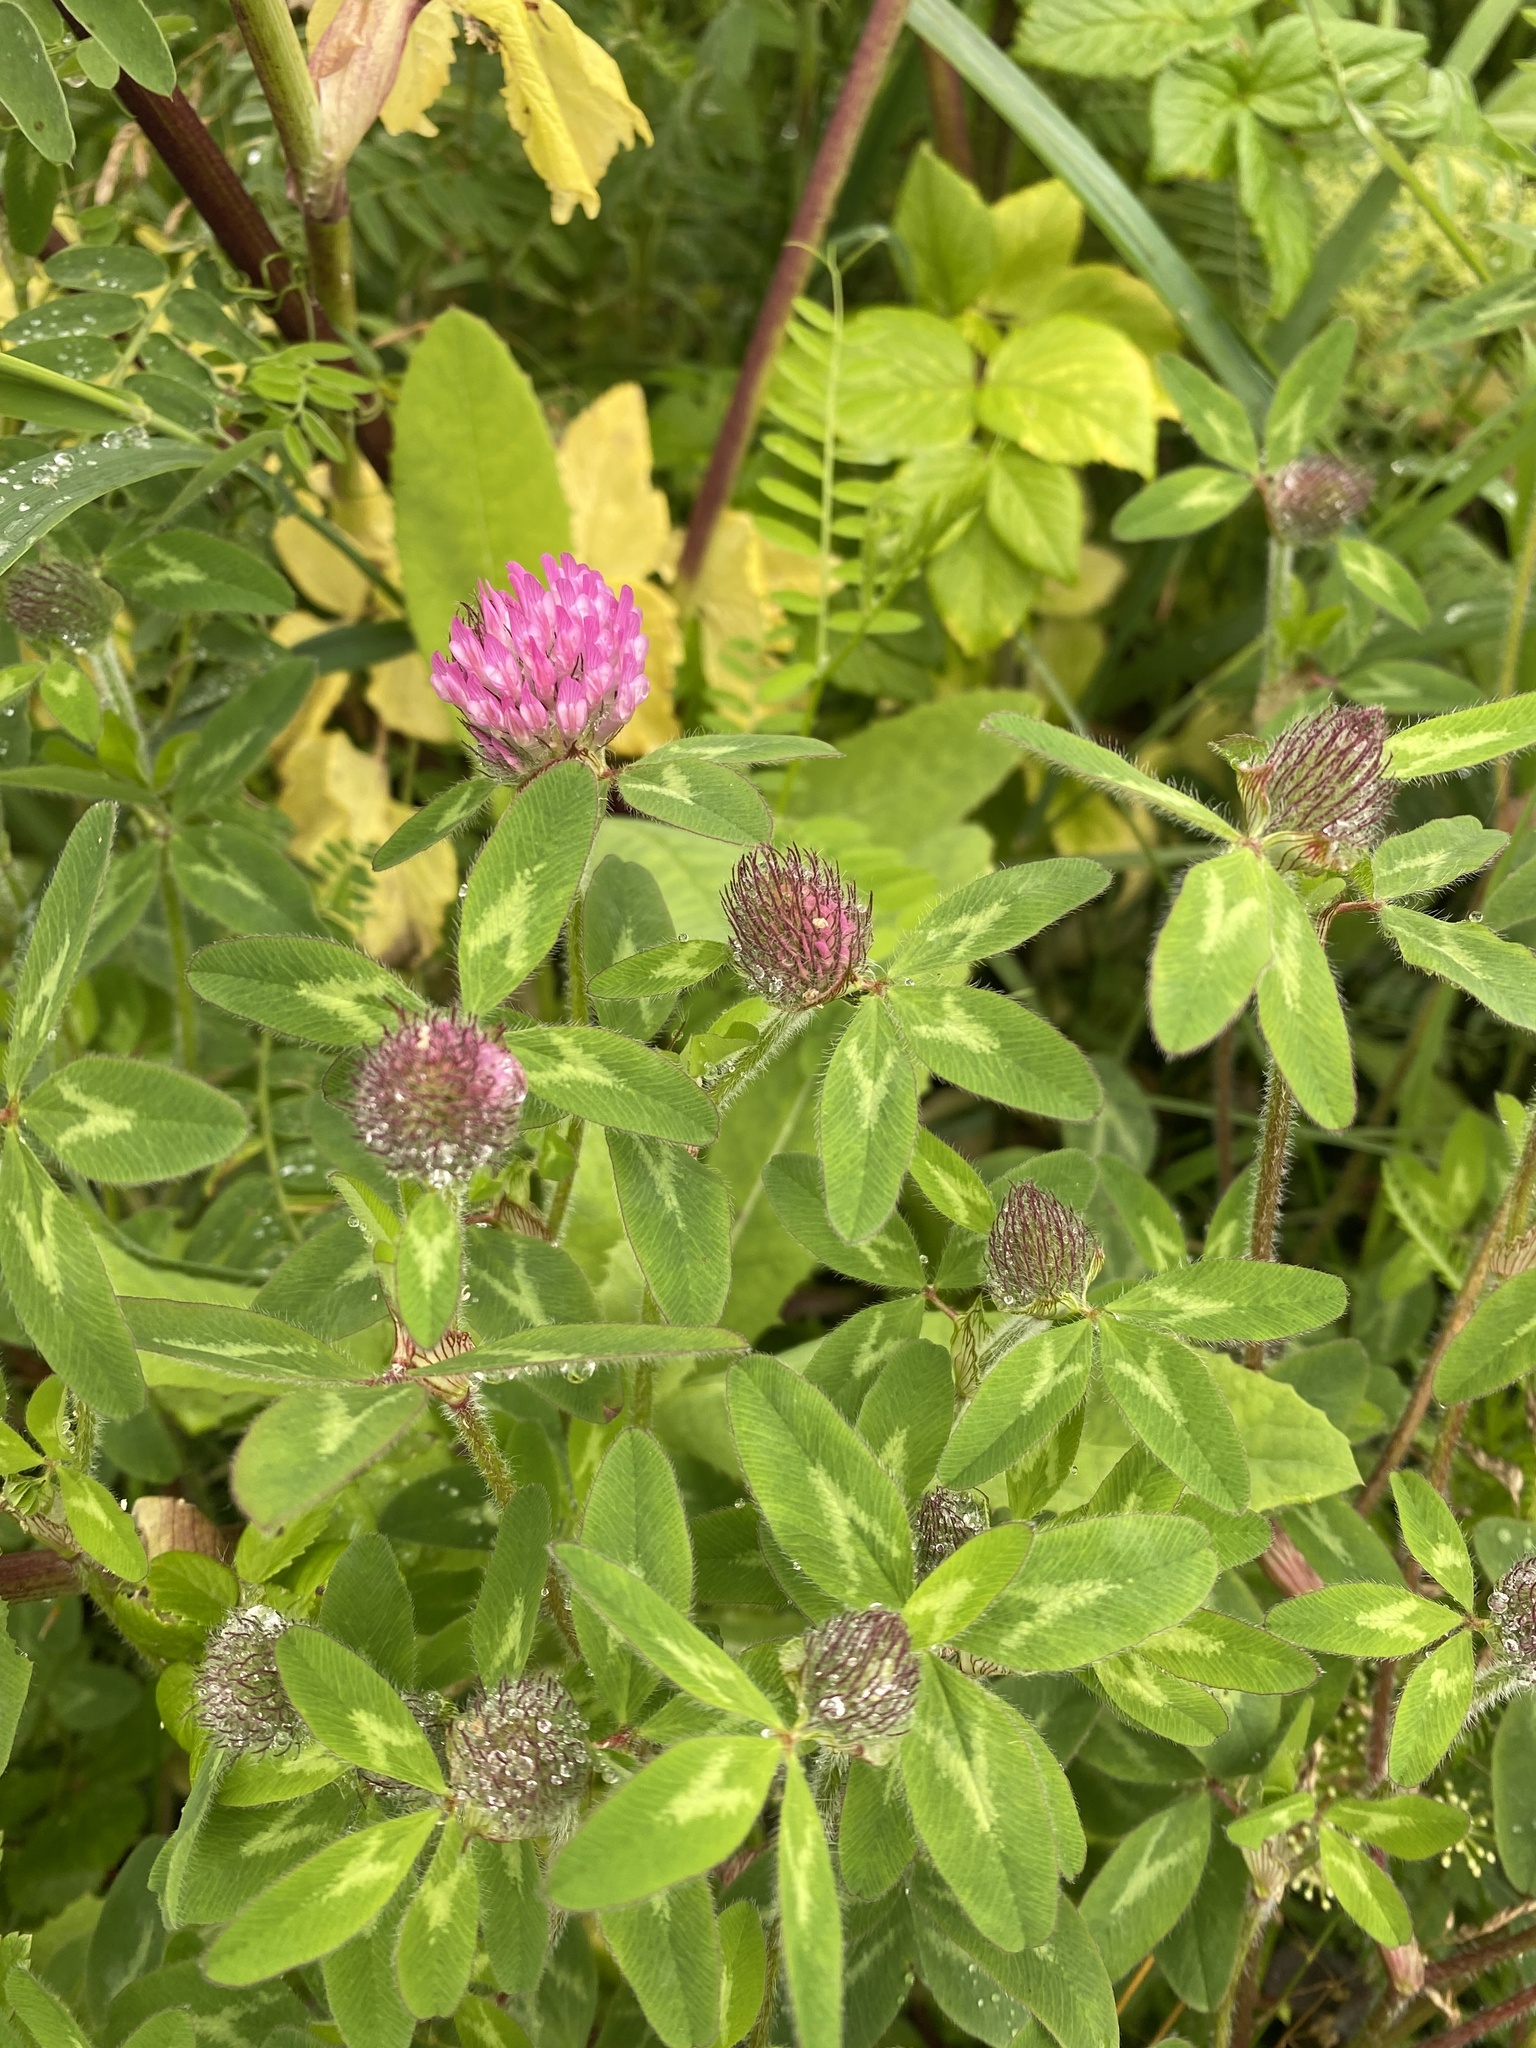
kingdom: Plantae
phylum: Tracheophyta
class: Magnoliopsida
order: Fabales
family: Fabaceae
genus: Trifolium
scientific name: Trifolium pratense
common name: Red clover
